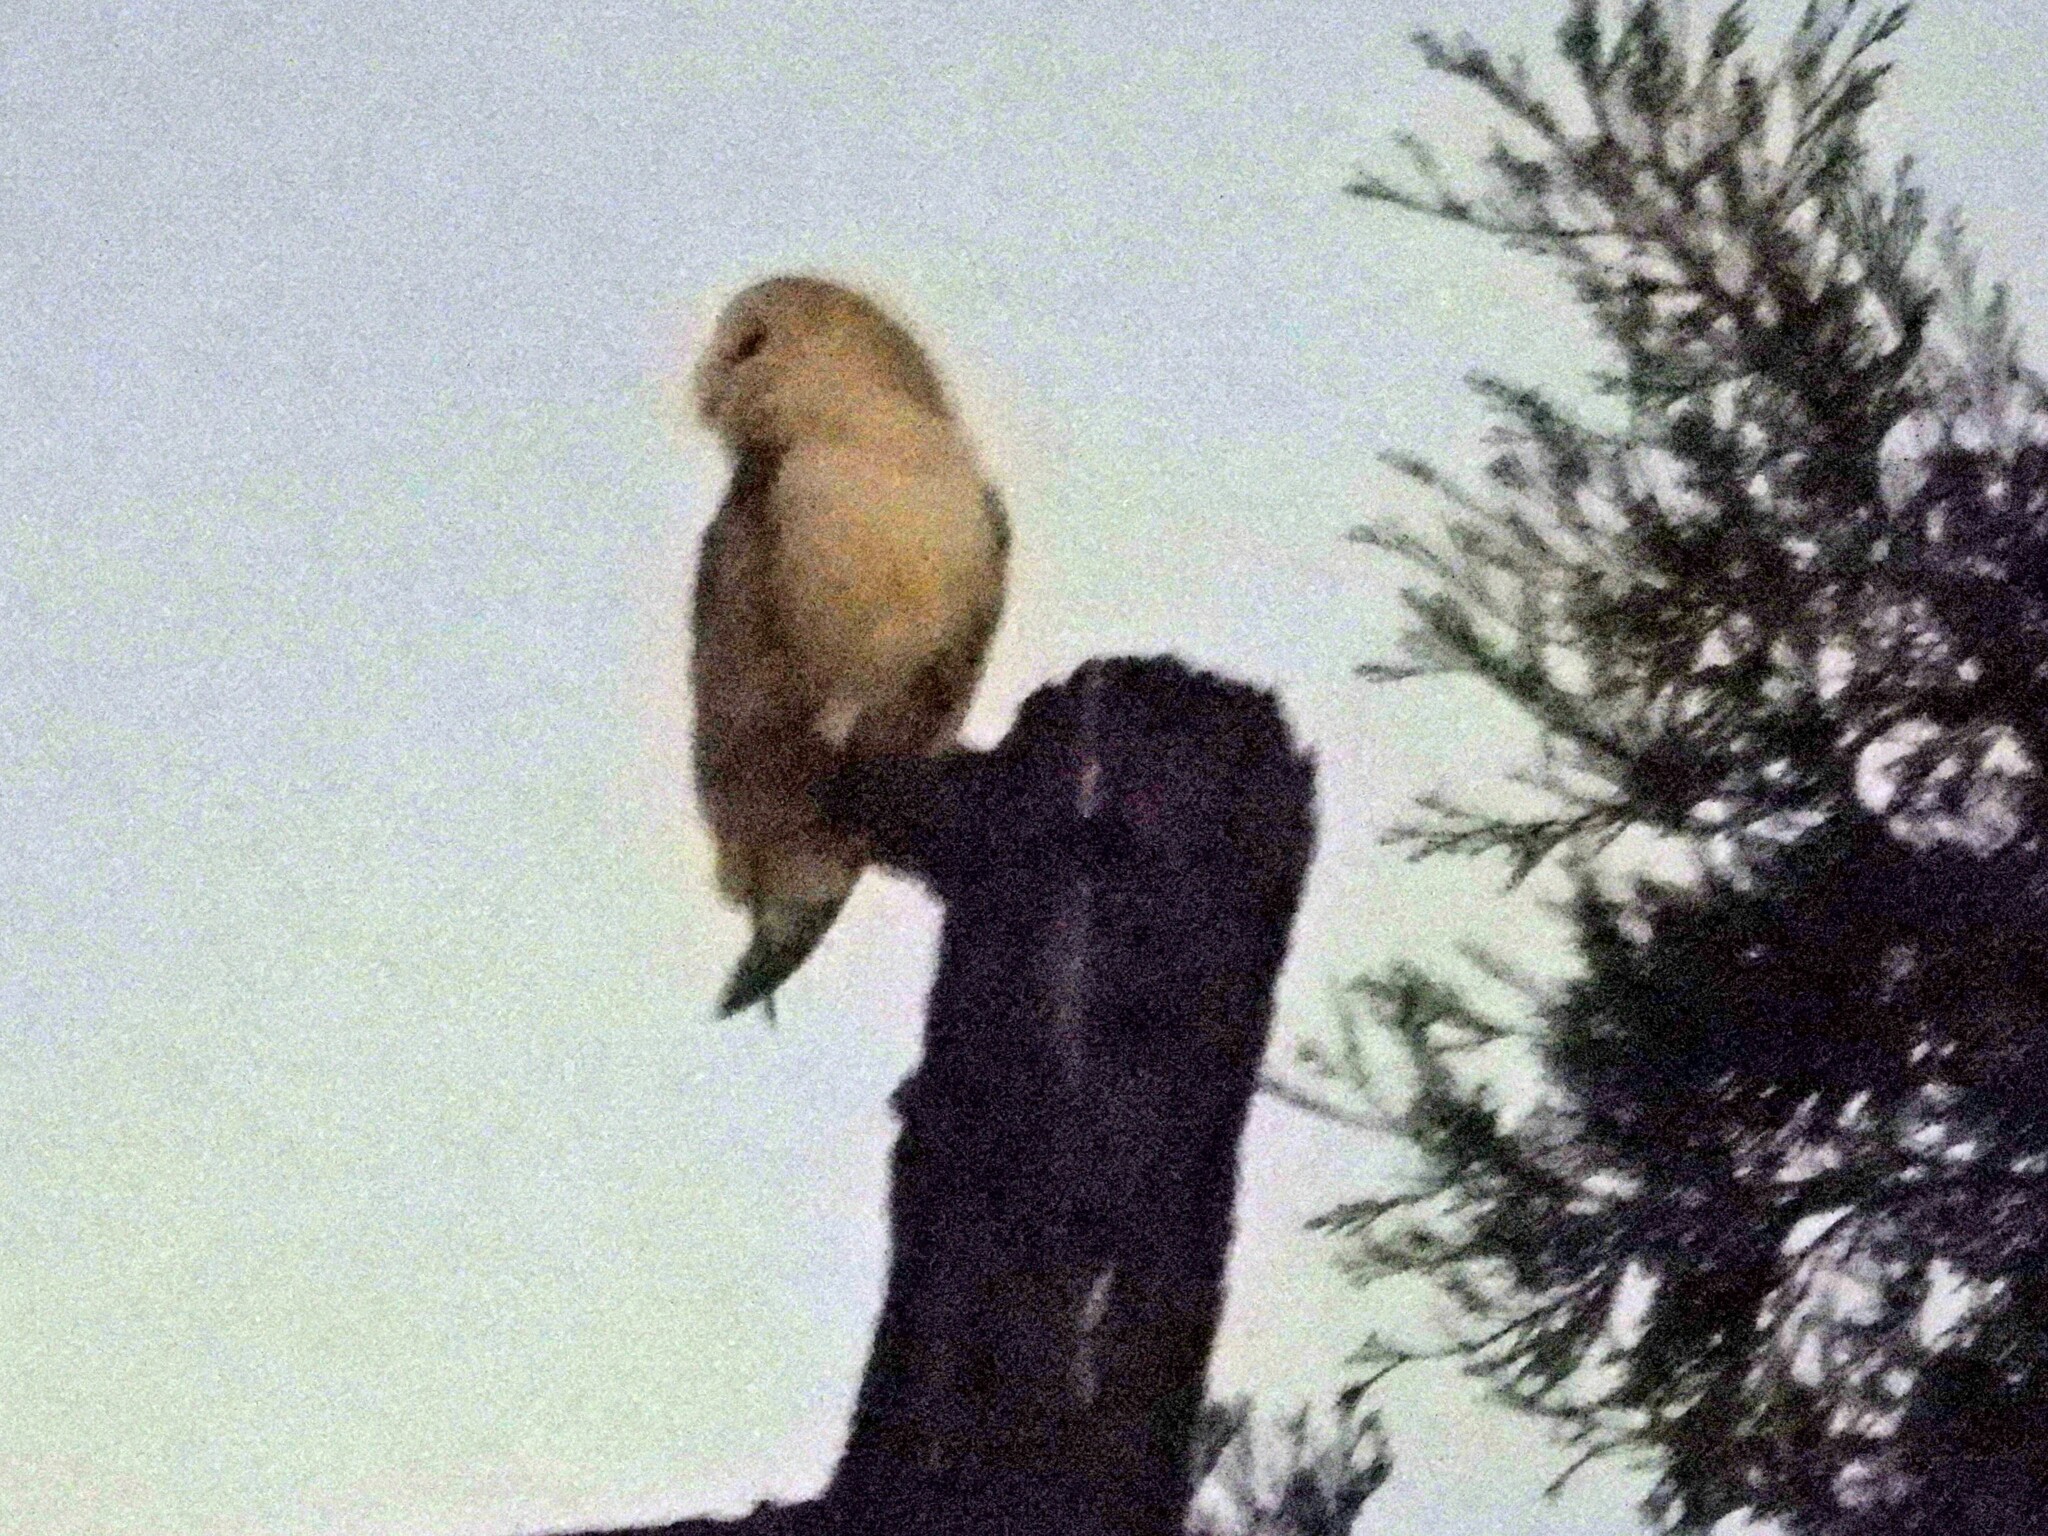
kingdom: Animalia
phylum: Chordata
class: Aves
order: Strigiformes
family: Tytonidae
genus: Tyto
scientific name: Tyto alba
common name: Barn owl
